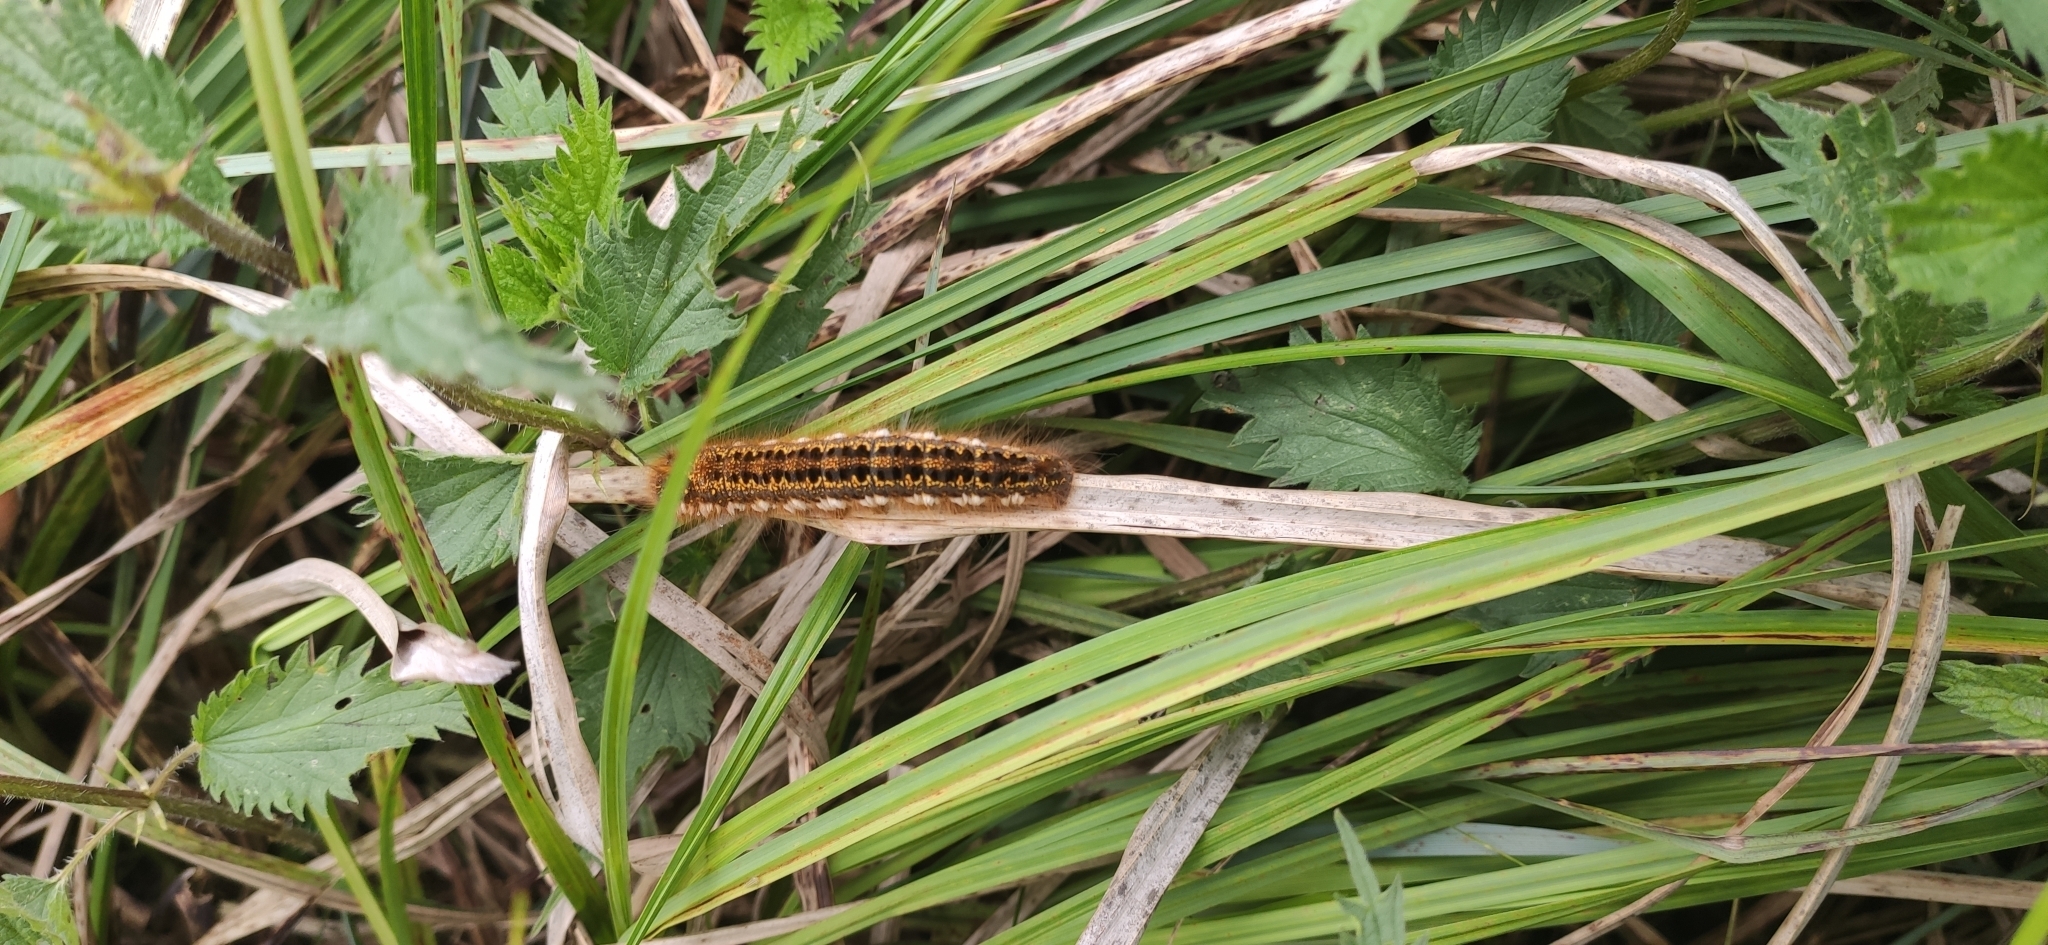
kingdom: Animalia
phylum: Arthropoda
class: Insecta
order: Lepidoptera
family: Lasiocampidae
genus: Euthrix
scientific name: Euthrix potatoria
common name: Drinker
